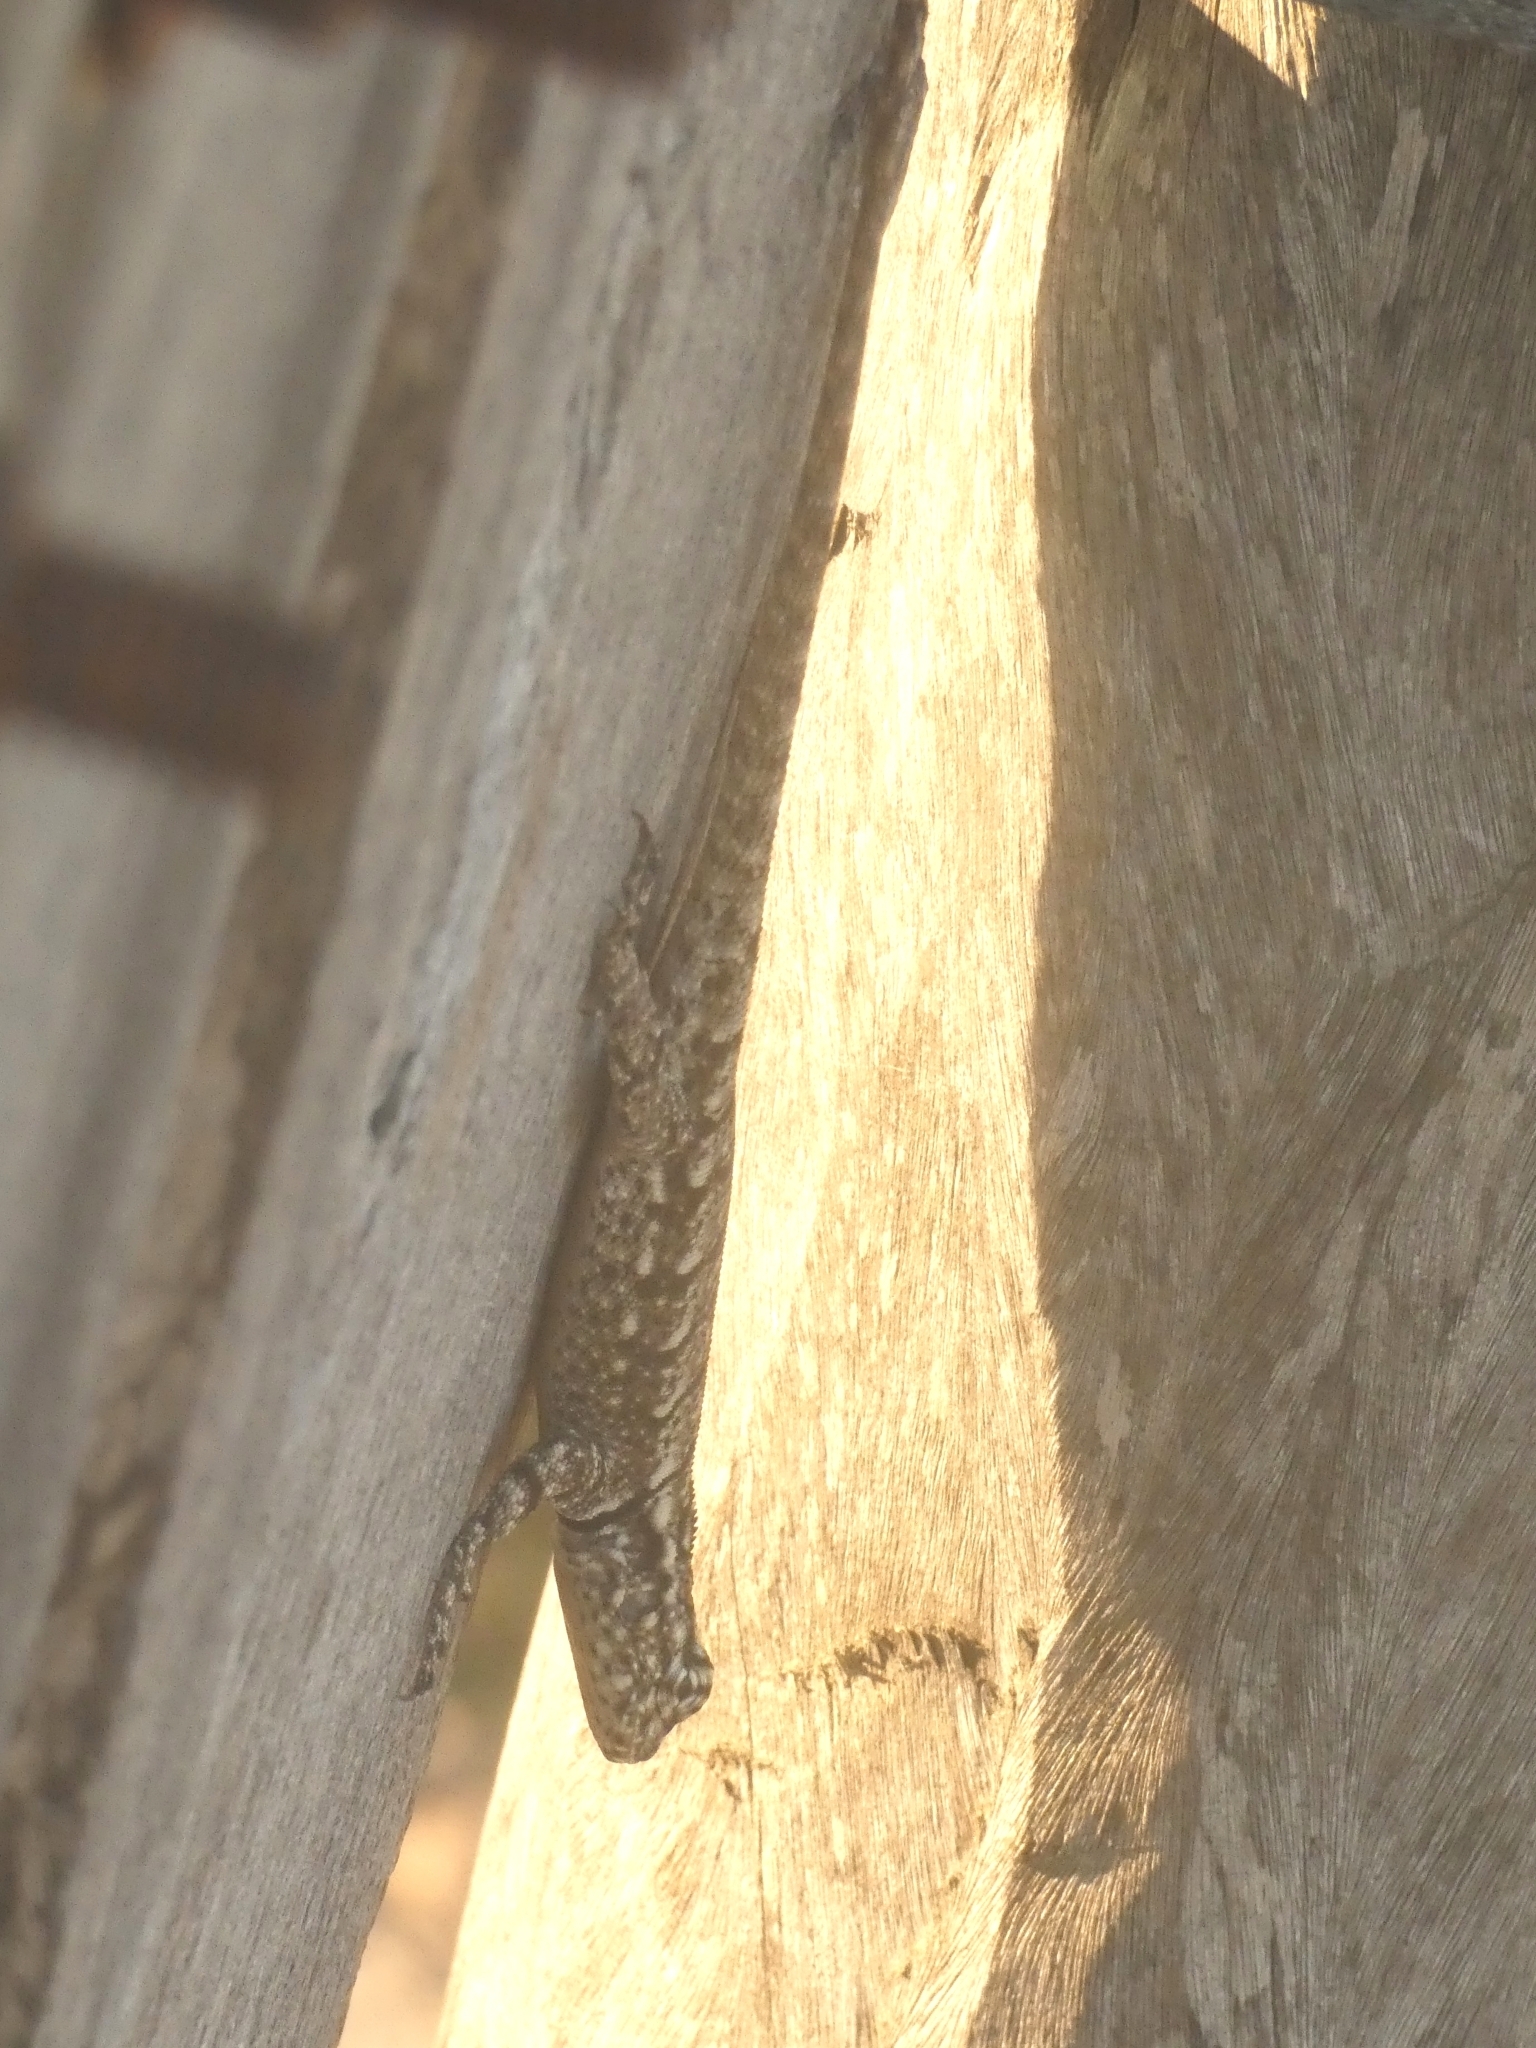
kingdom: Animalia
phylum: Chordata
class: Squamata
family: Tropiduridae
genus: Tropidurus
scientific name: Tropidurus guarani
